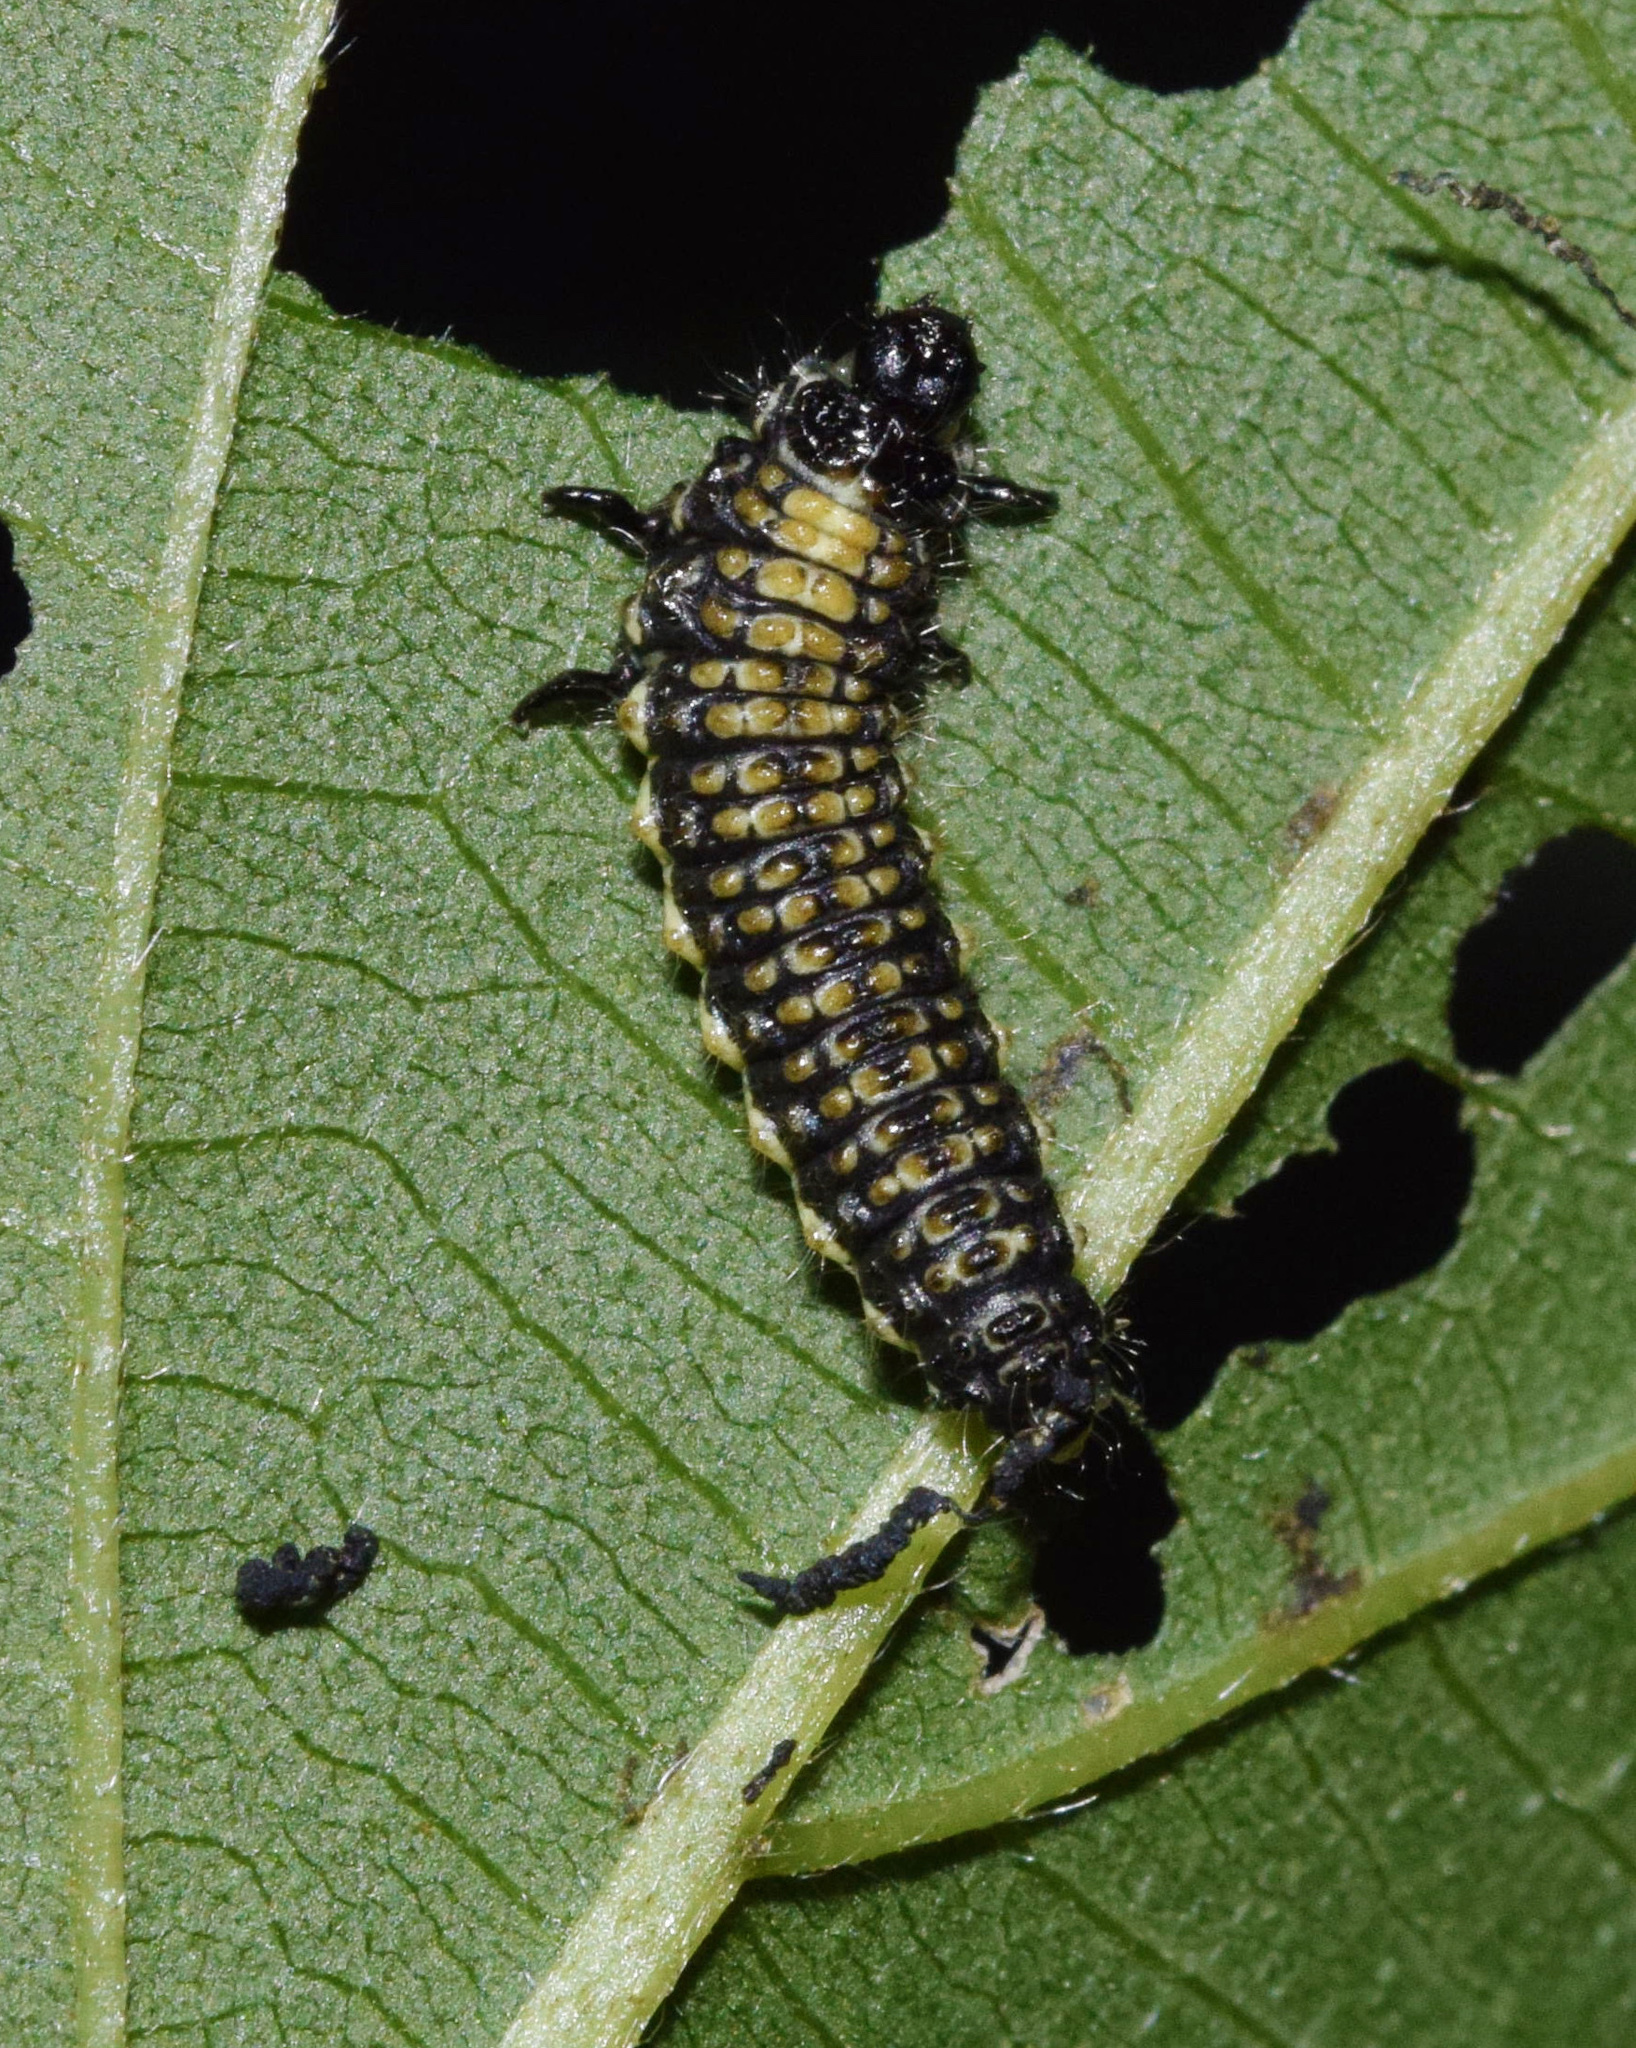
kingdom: Plantae
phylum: Tracheophyta
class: Magnoliopsida
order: Rosales
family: Cannabaceae
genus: Trema
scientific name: Trema orientale
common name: Indian charcoal tree
